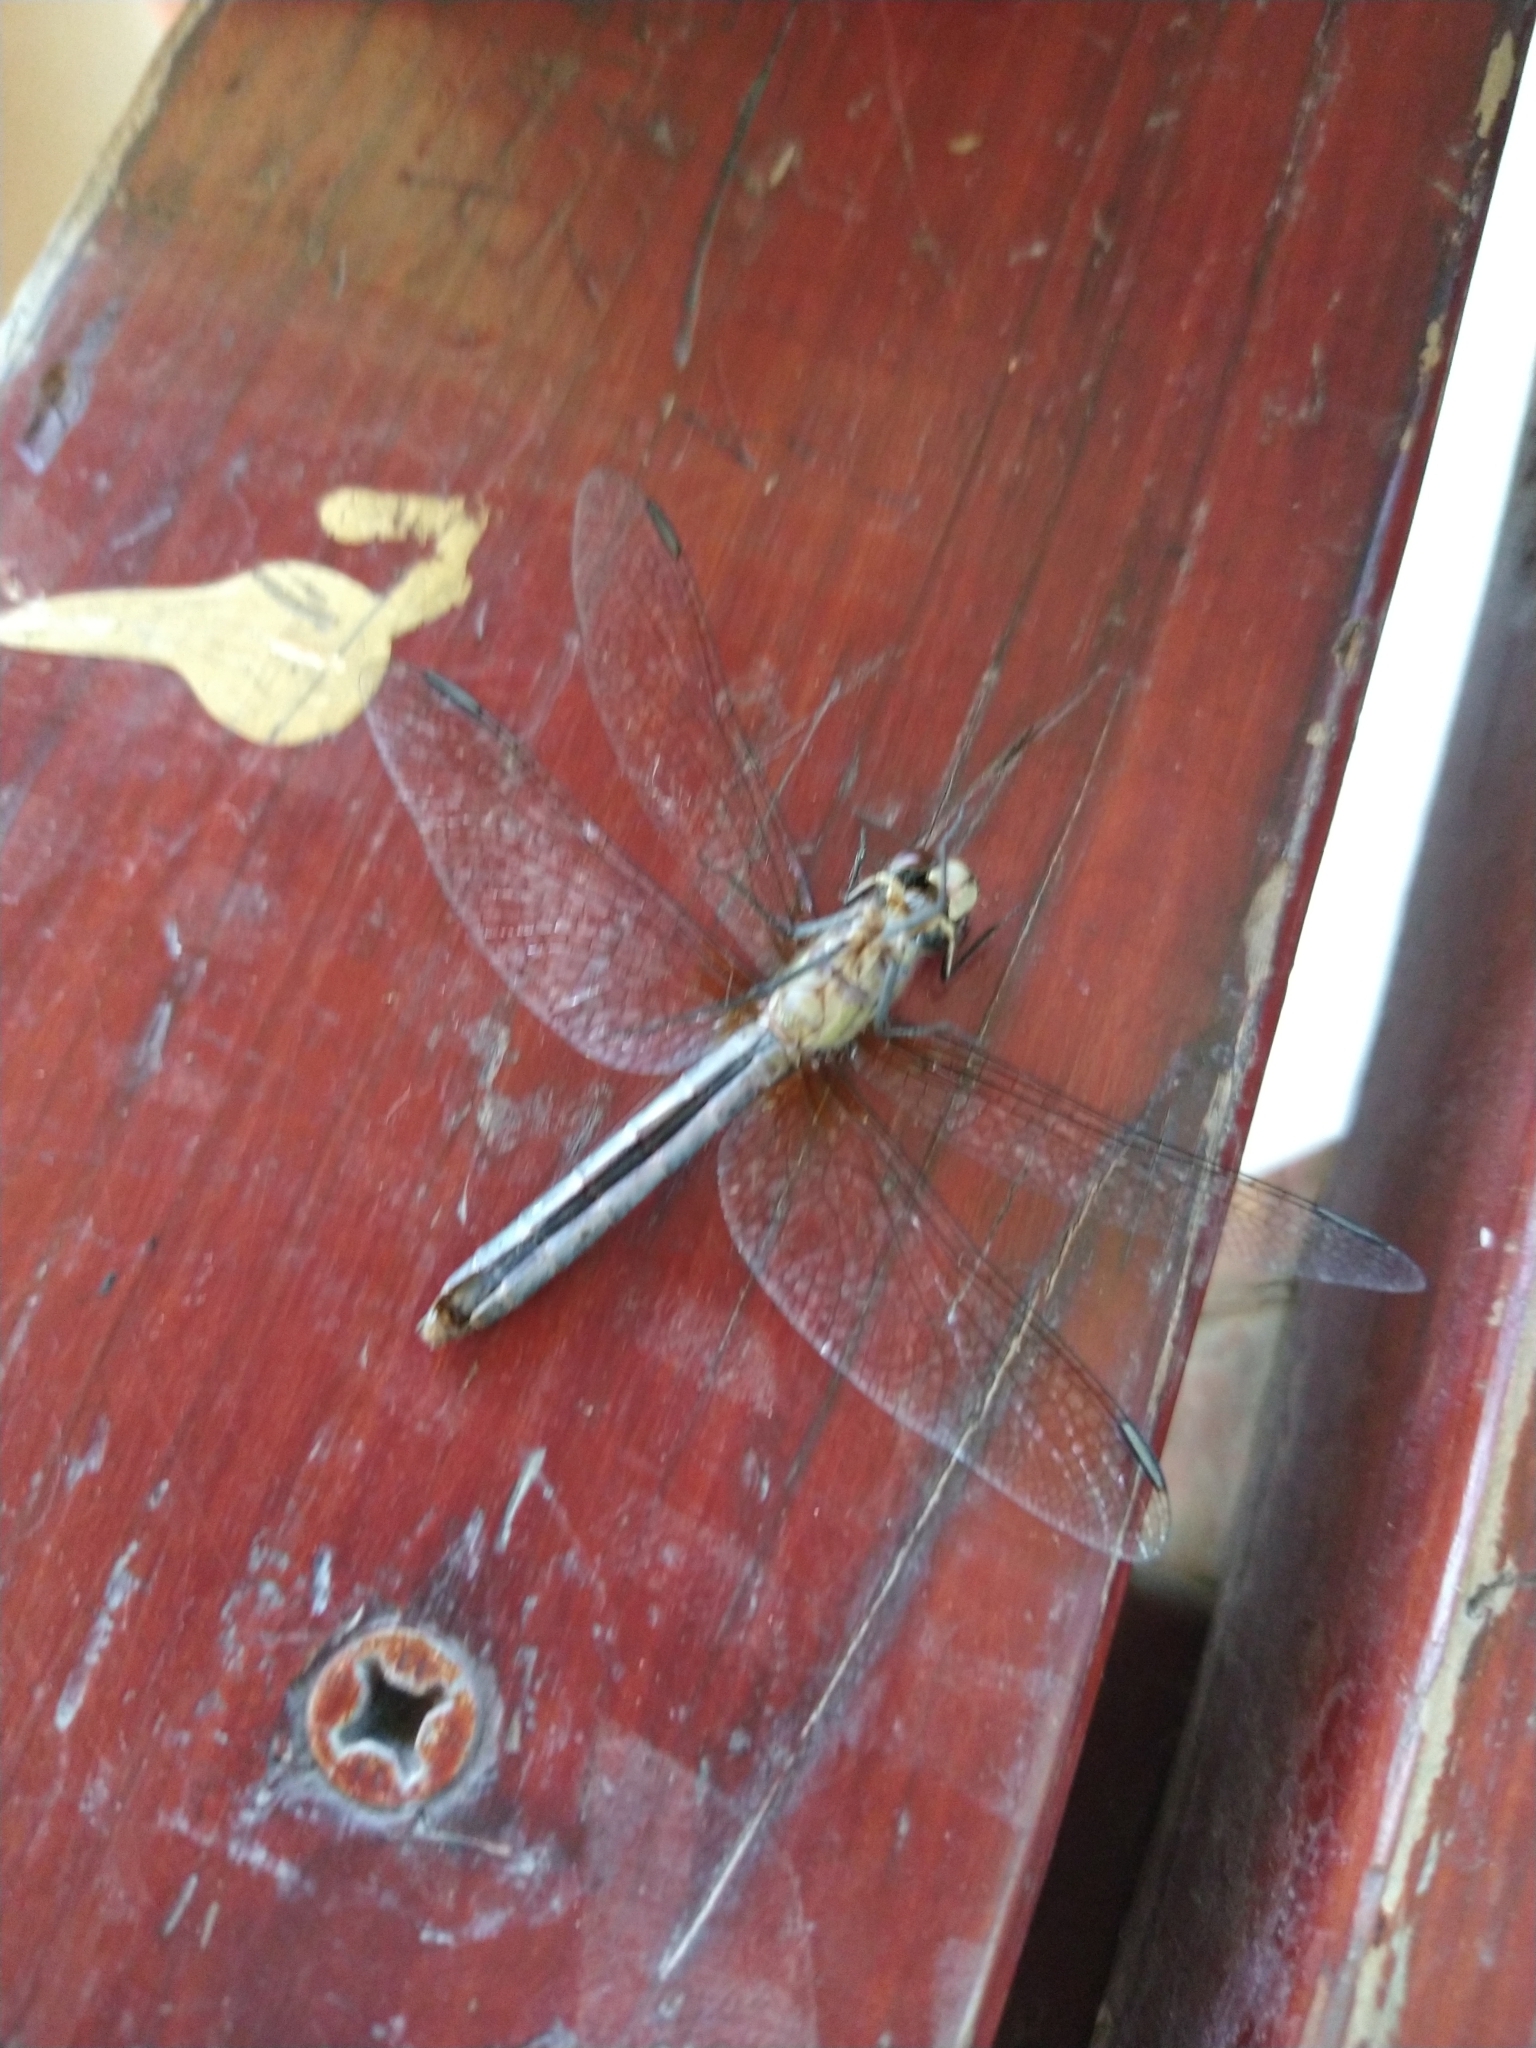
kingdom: Animalia
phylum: Arthropoda
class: Insecta
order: Odonata
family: Libellulidae
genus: Pachydiplax
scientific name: Pachydiplax longipennis
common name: Blue dasher
